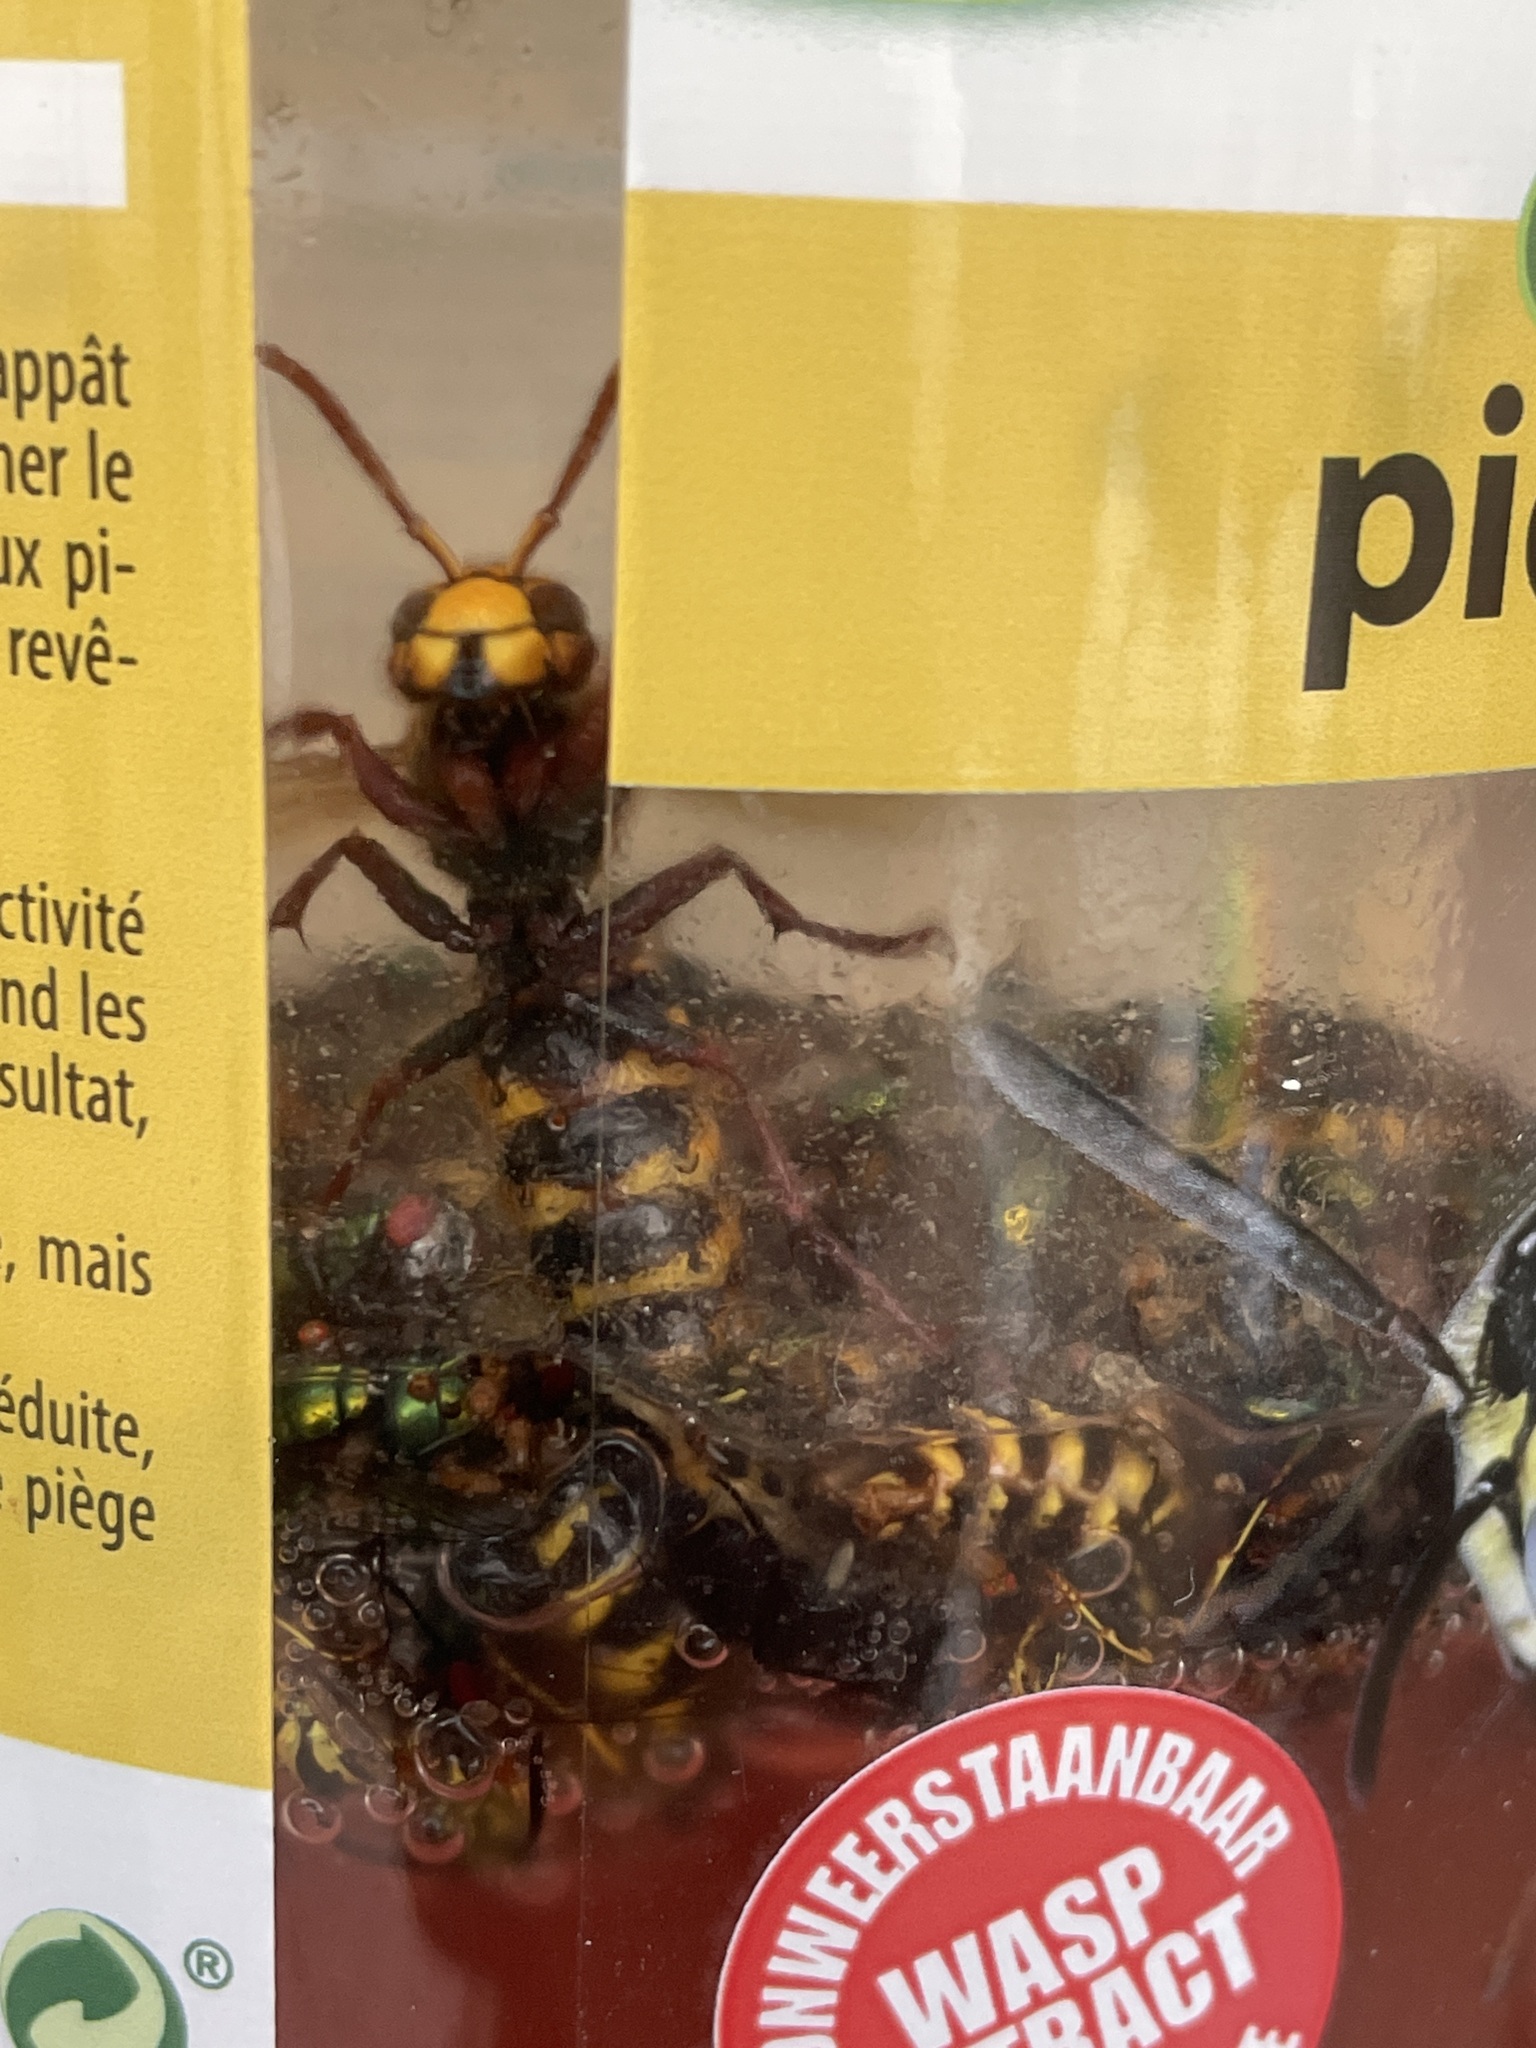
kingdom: Animalia
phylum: Arthropoda
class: Insecta
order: Hymenoptera
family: Vespidae
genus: Vespa
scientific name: Vespa crabro
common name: Hornet
